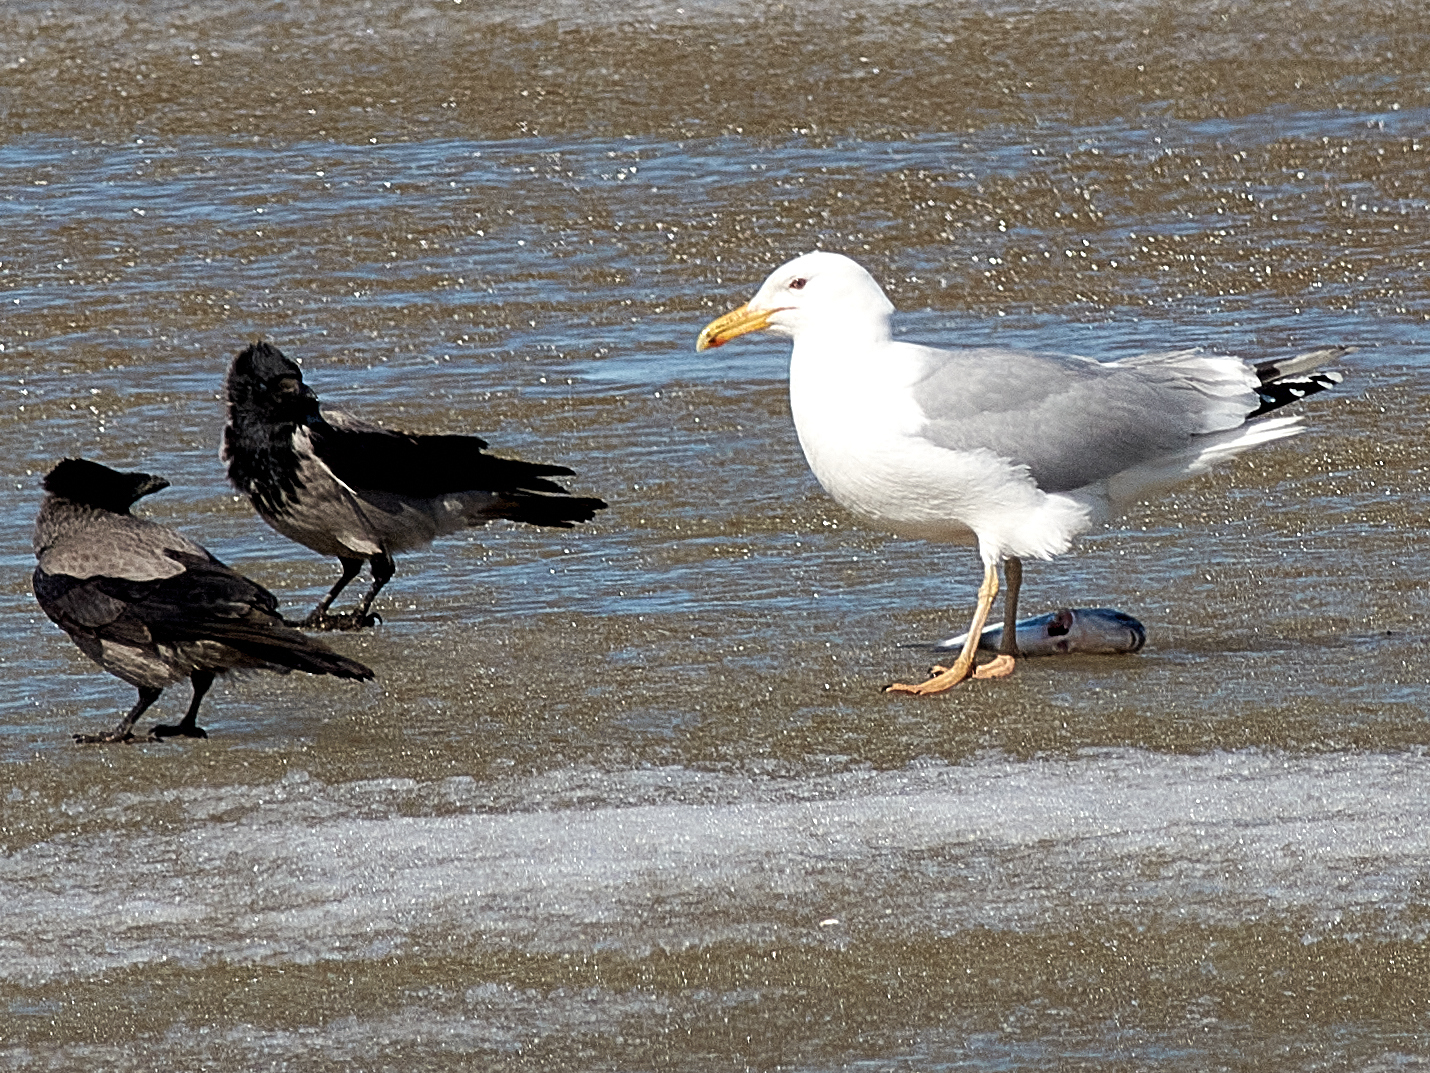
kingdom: Animalia
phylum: Chordata
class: Aves
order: Charadriiformes
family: Laridae
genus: Larus
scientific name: Larus cachinnans
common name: Caspian gull
